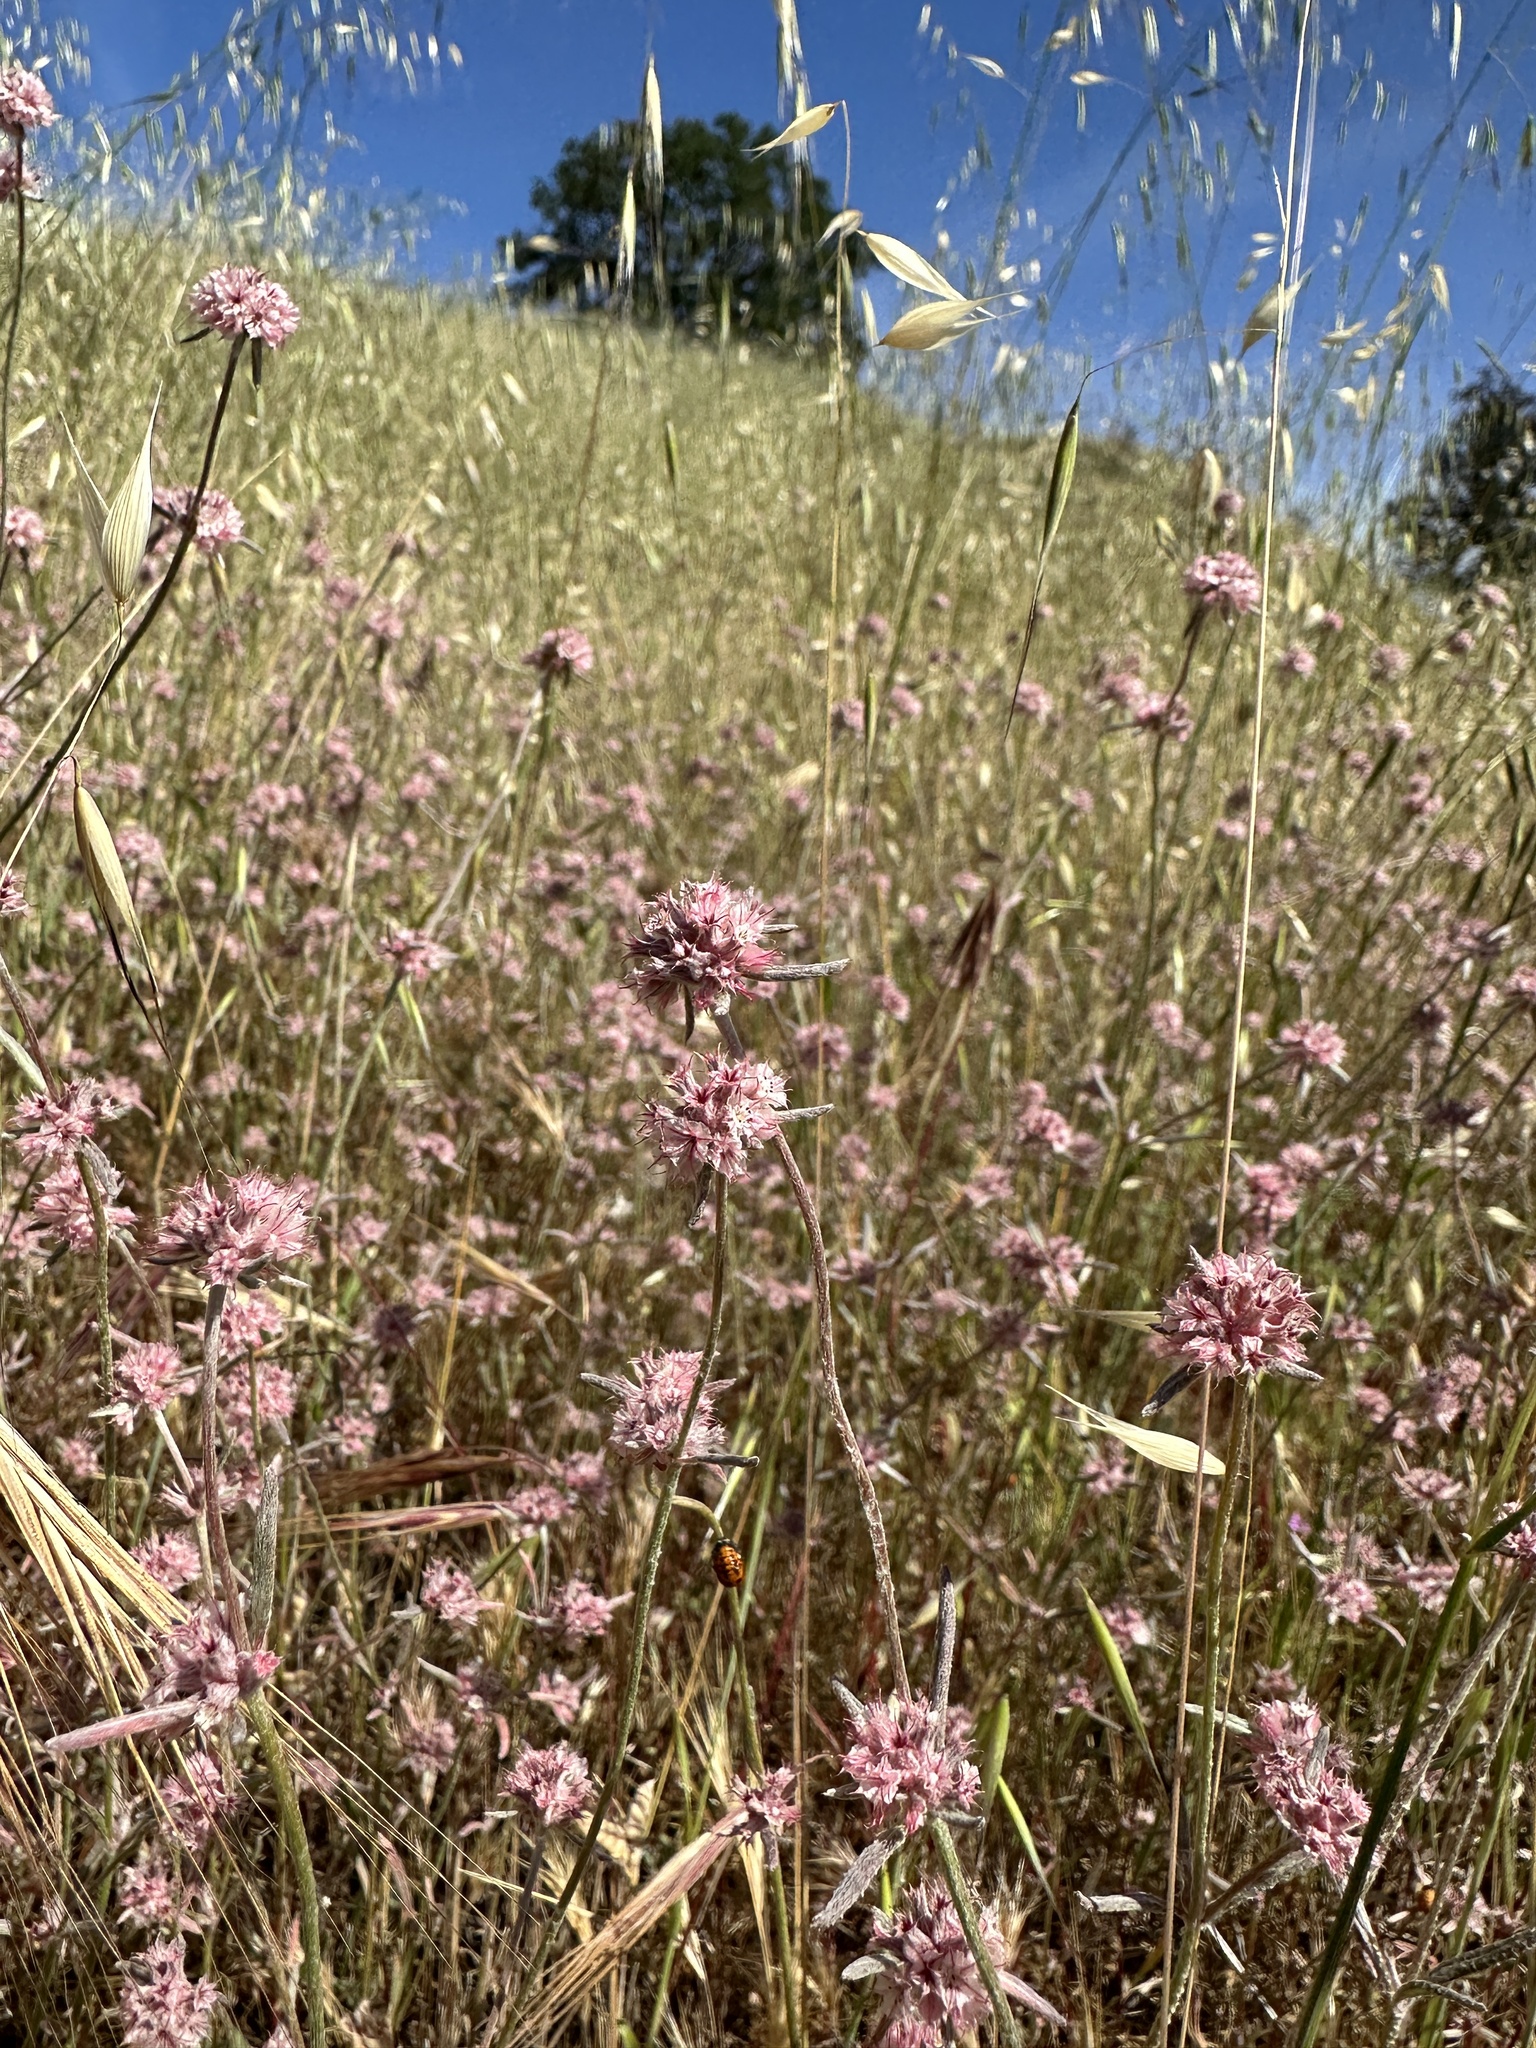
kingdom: Plantae
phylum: Tracheophyta
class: Magnoliopsida
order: Caryophyllales
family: Polygonaceae
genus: Chorizanthe
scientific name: Chorizanthe membranacea
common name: Pink spineflower
